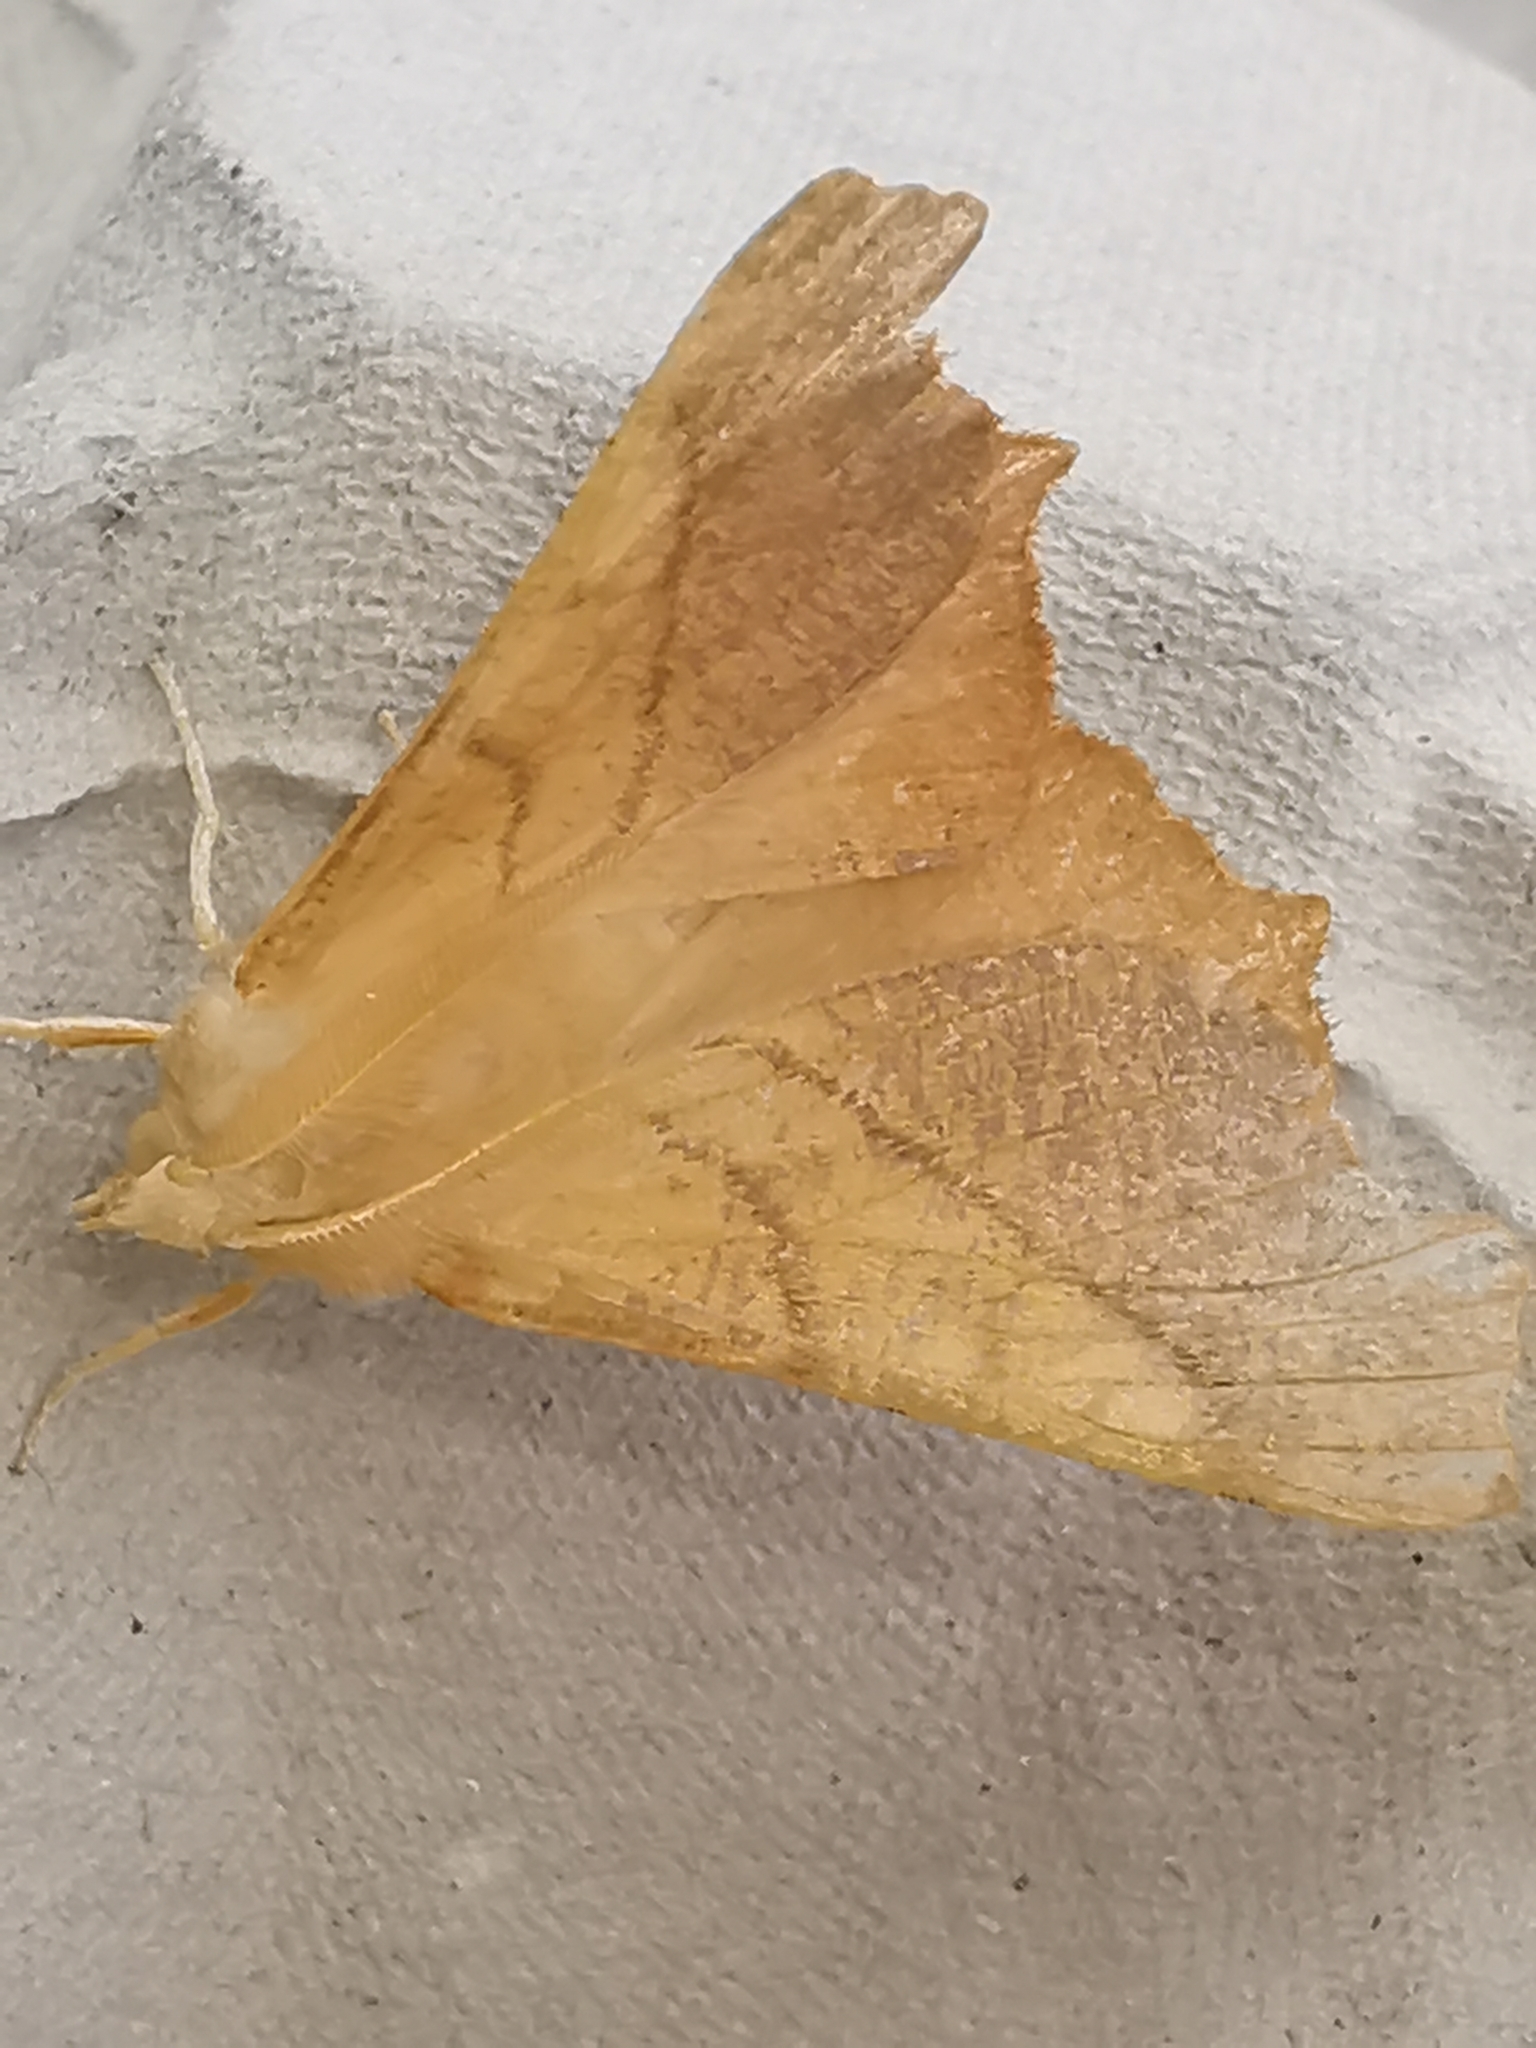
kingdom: Animalia
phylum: Arthropoda
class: Insecta
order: Lepidoptera
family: Geometridae
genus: Ennomos
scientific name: Ennomos fuscantaria
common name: Dusky thorn
